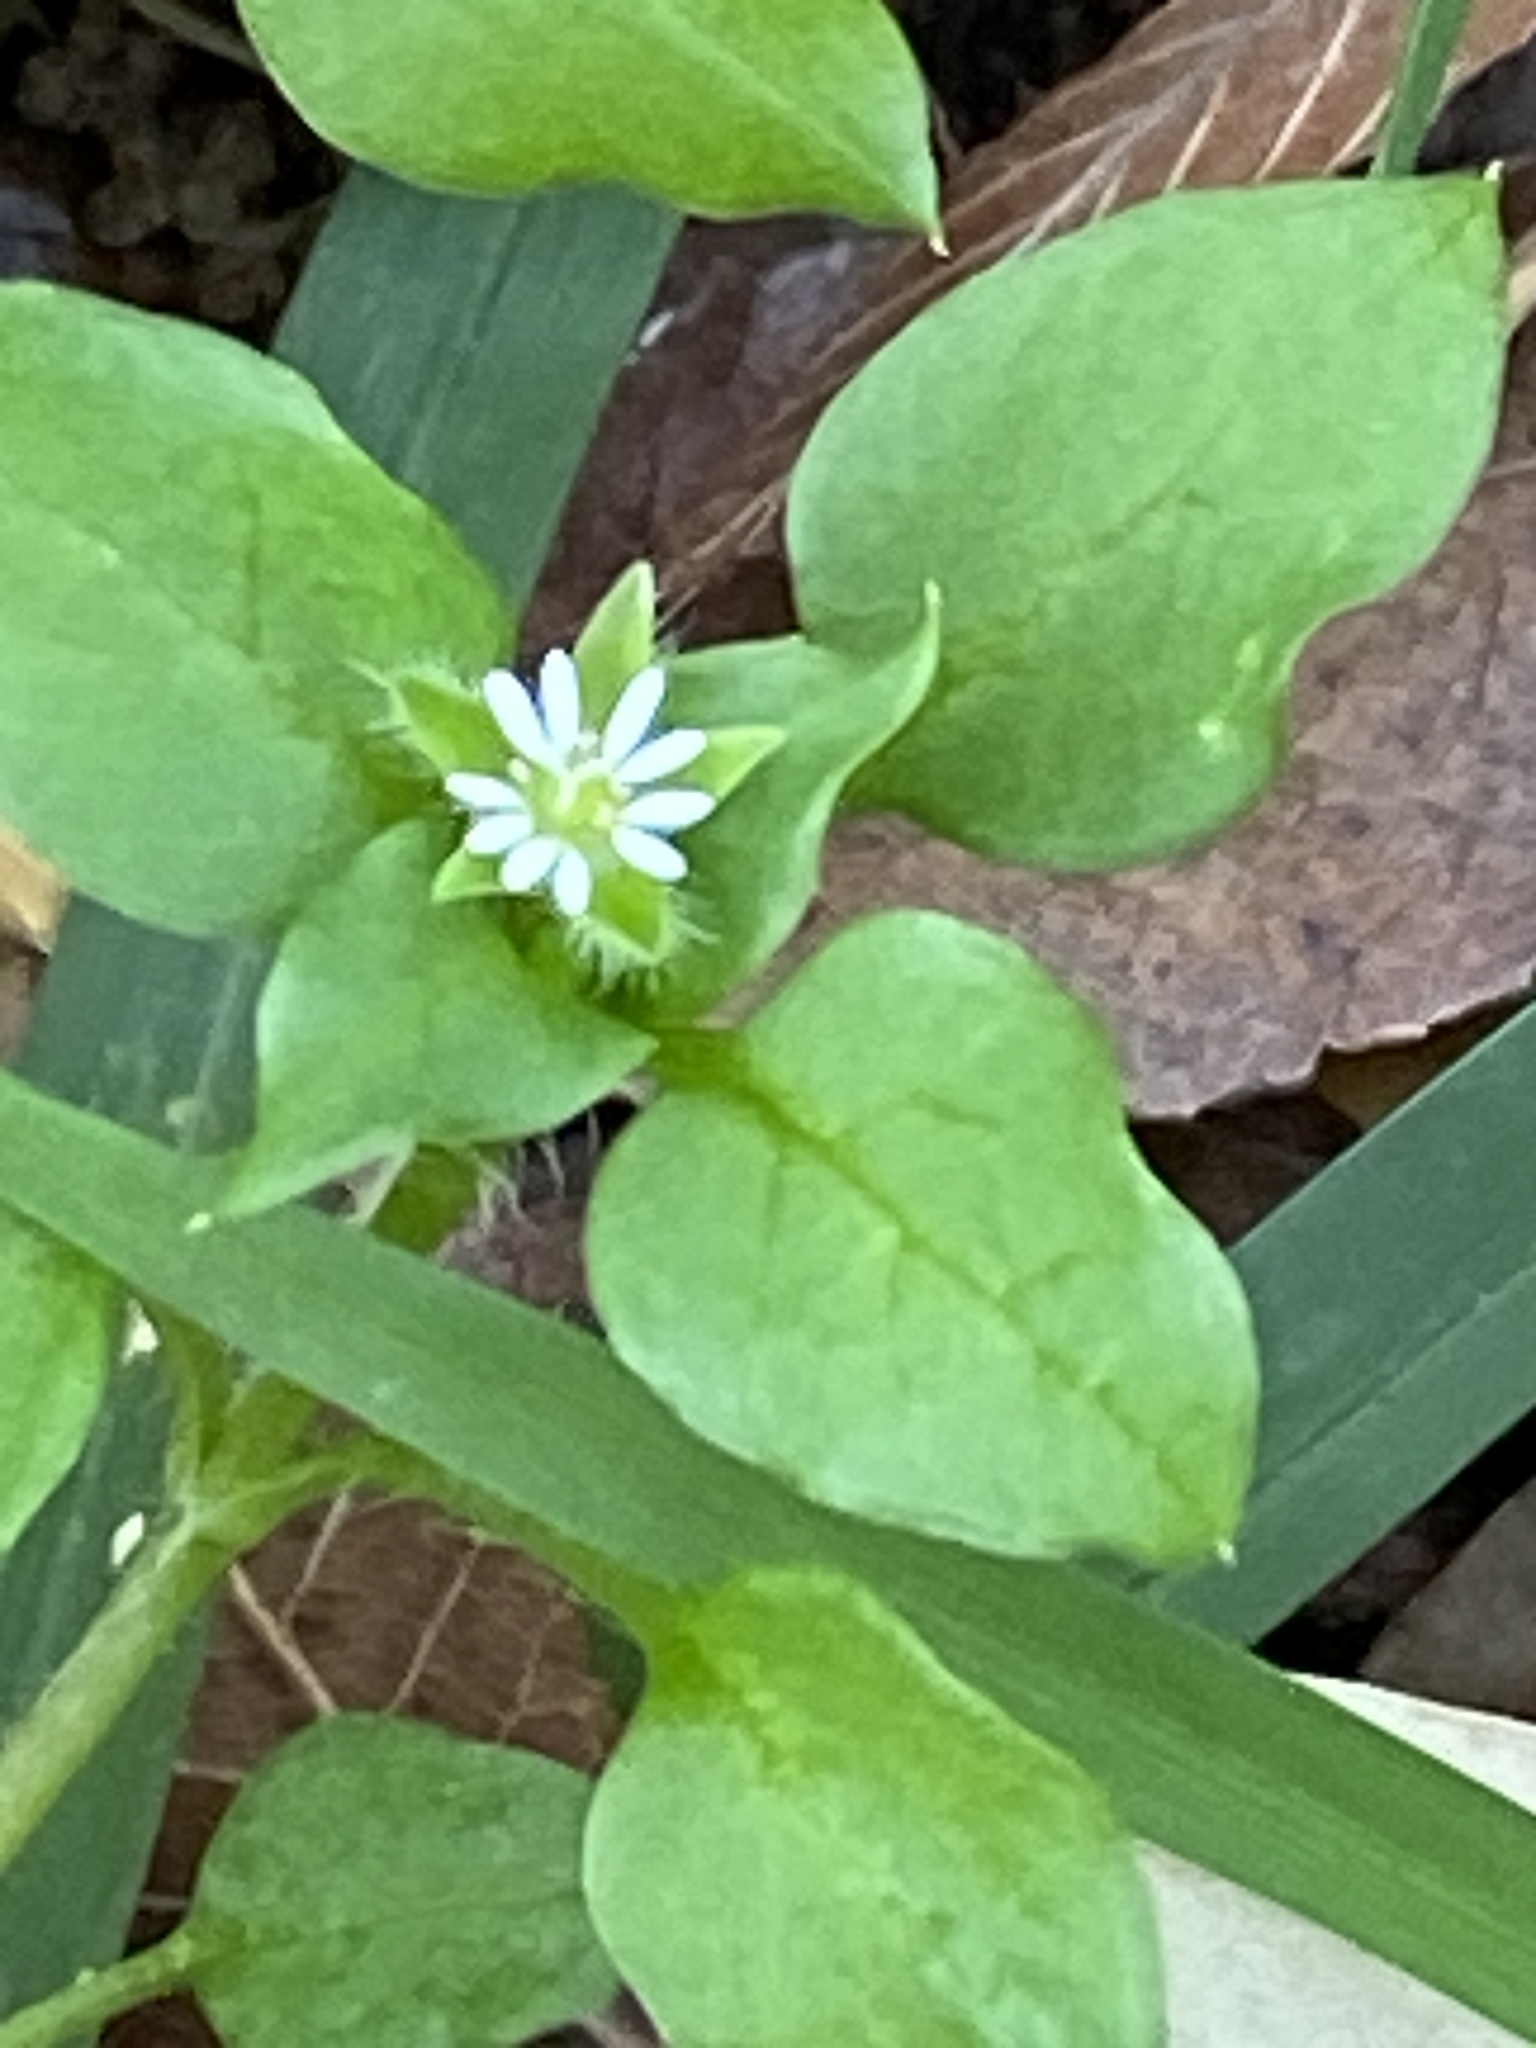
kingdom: Plantae
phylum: Tracheophyta
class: Magnoliopsida
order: Caryophyllales
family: Caryophyllaceae
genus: Stellaria
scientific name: Stellaria media
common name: Common chickweed
